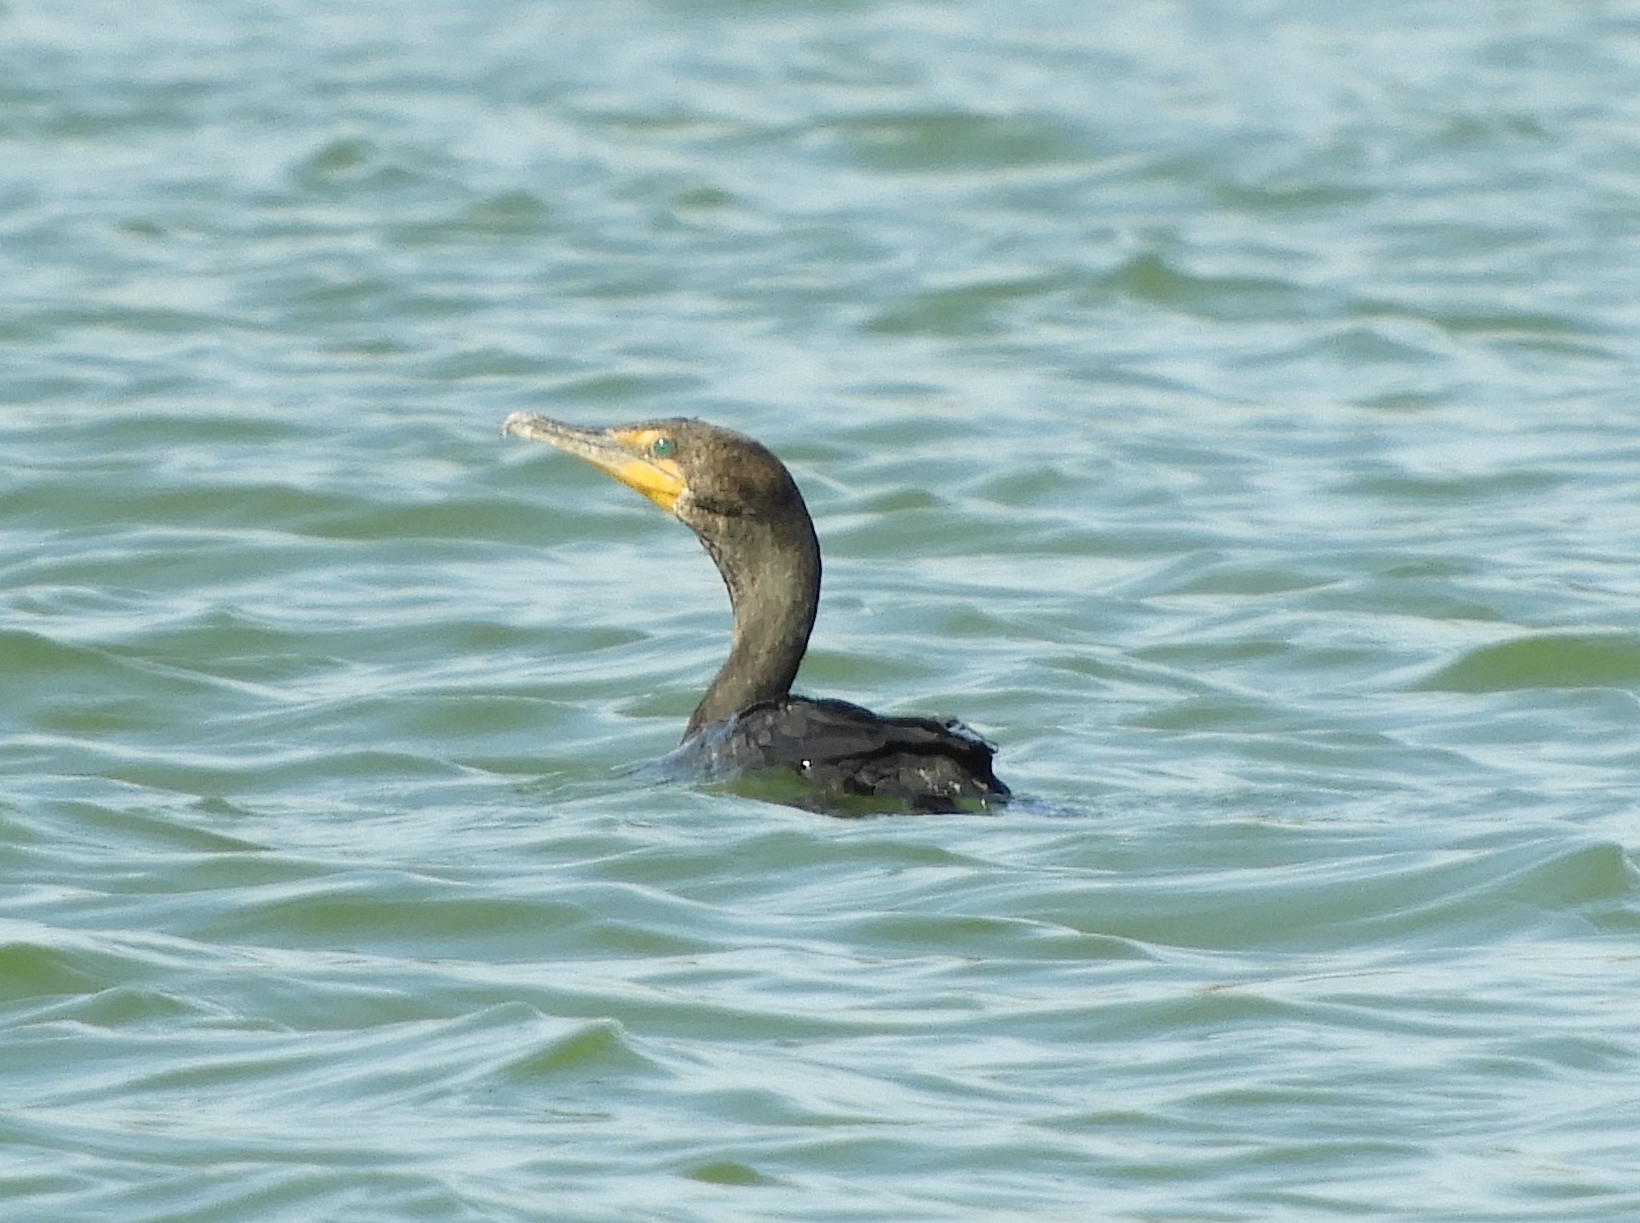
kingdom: Animalia
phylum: Chordata
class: Aves
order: Suliformes
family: Phalacrocoracidae
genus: Phalacrocorax
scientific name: Phalacrocorax auritus
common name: Double-crested cormorant
